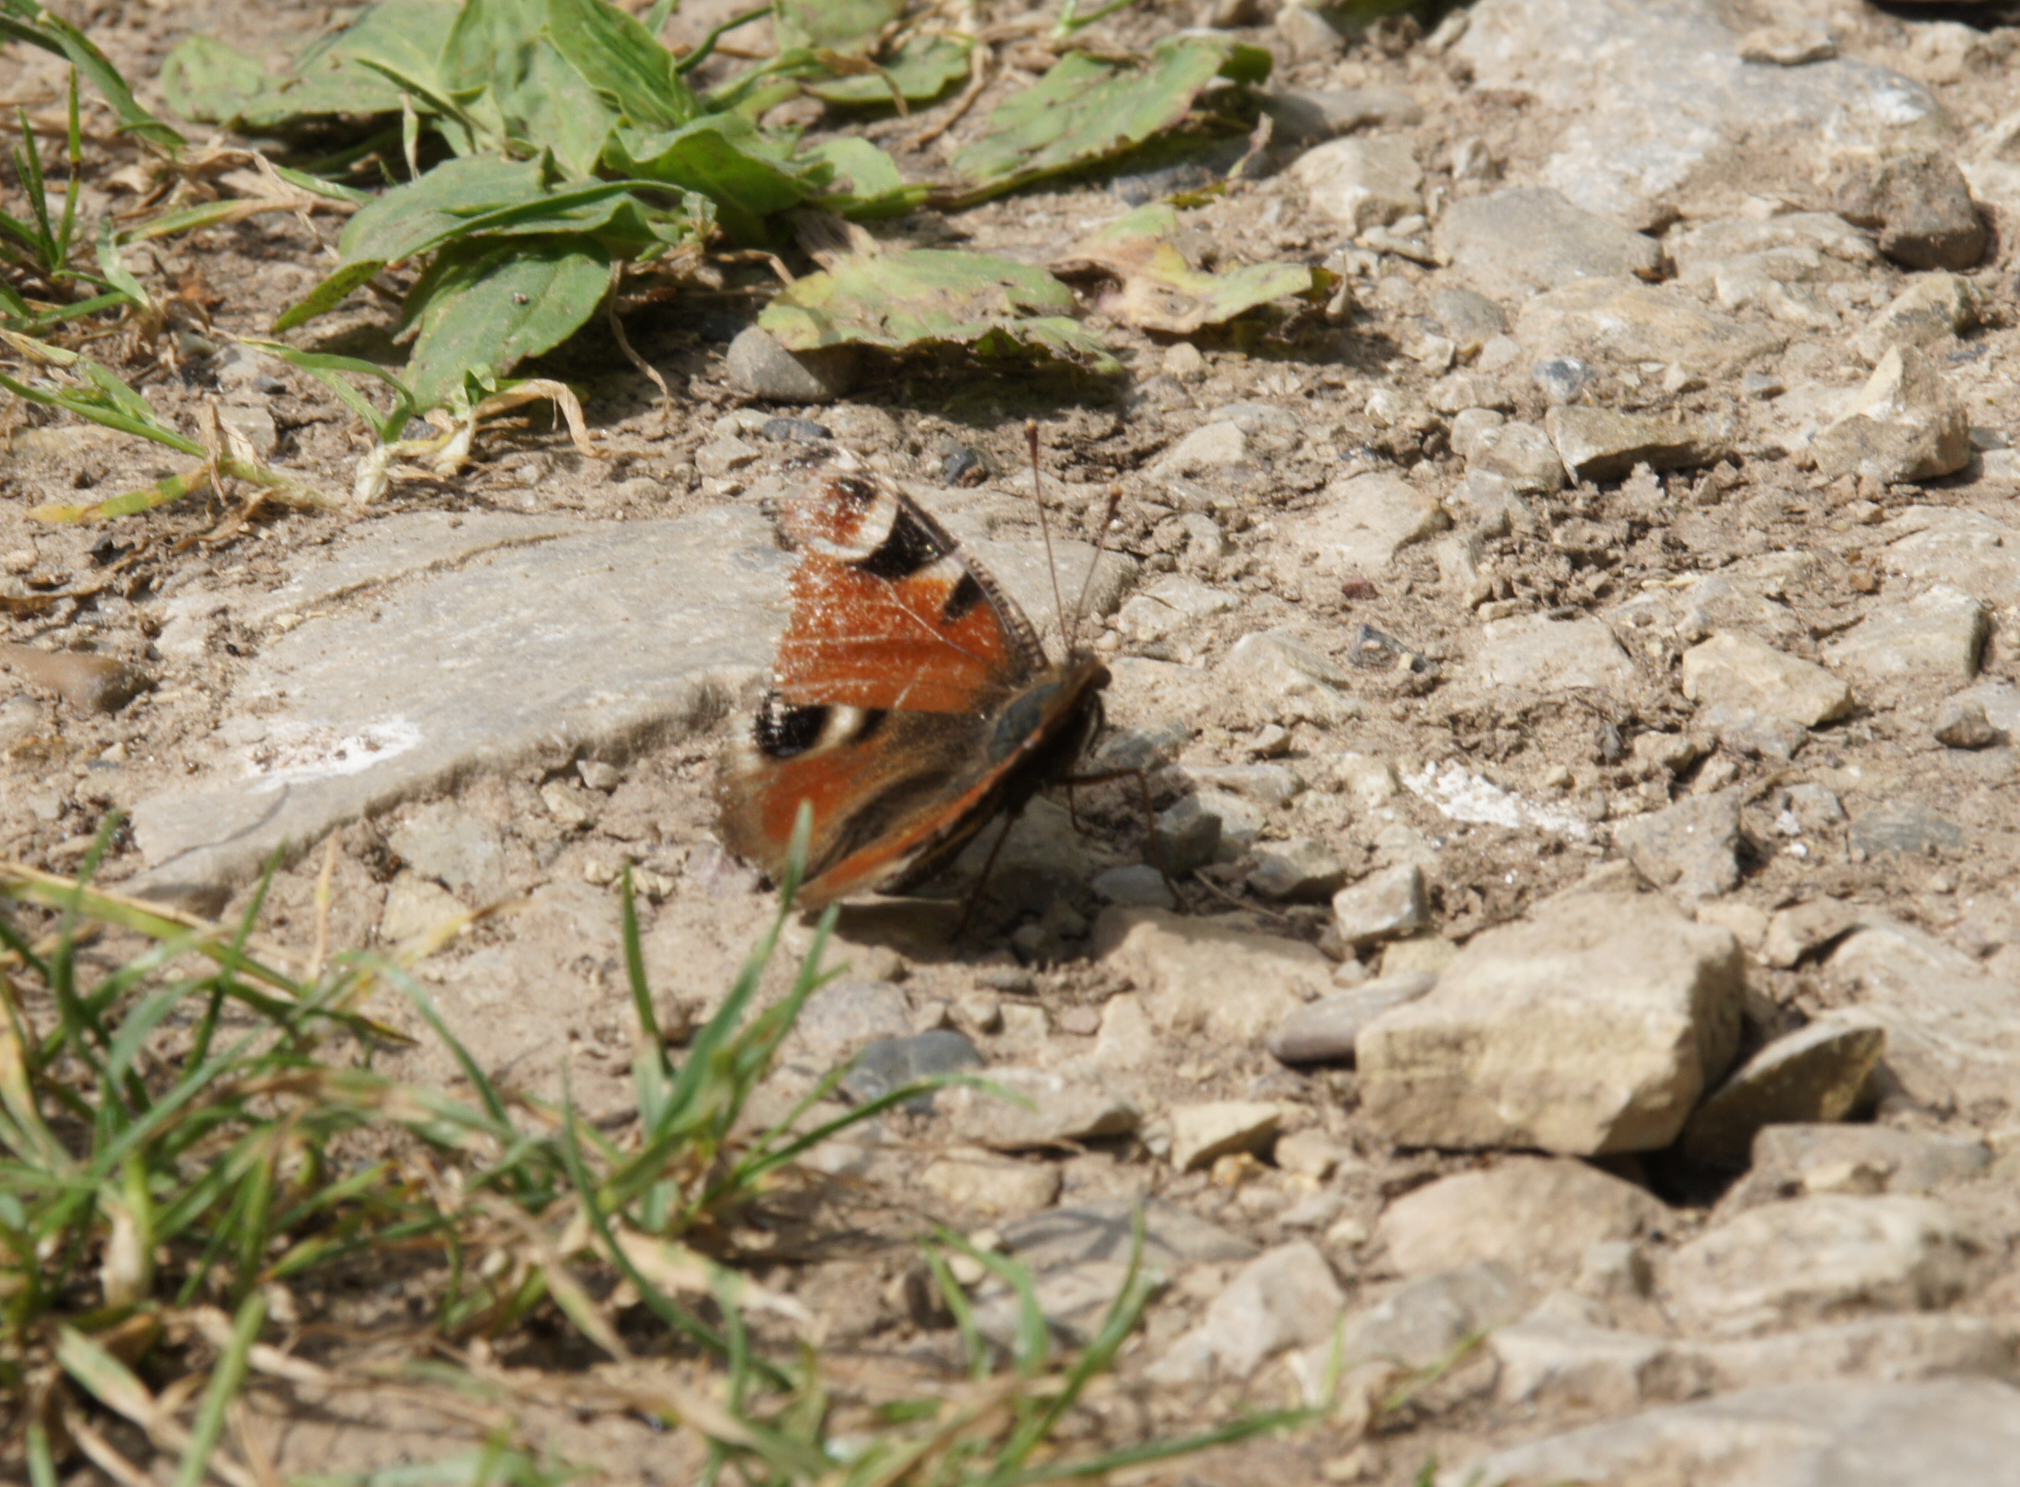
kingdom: Animalia
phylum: Arthropoda
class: Insecta
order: Lepidoptera
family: Nymphalidae
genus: Aglais
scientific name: Aglais io
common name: Peacock
